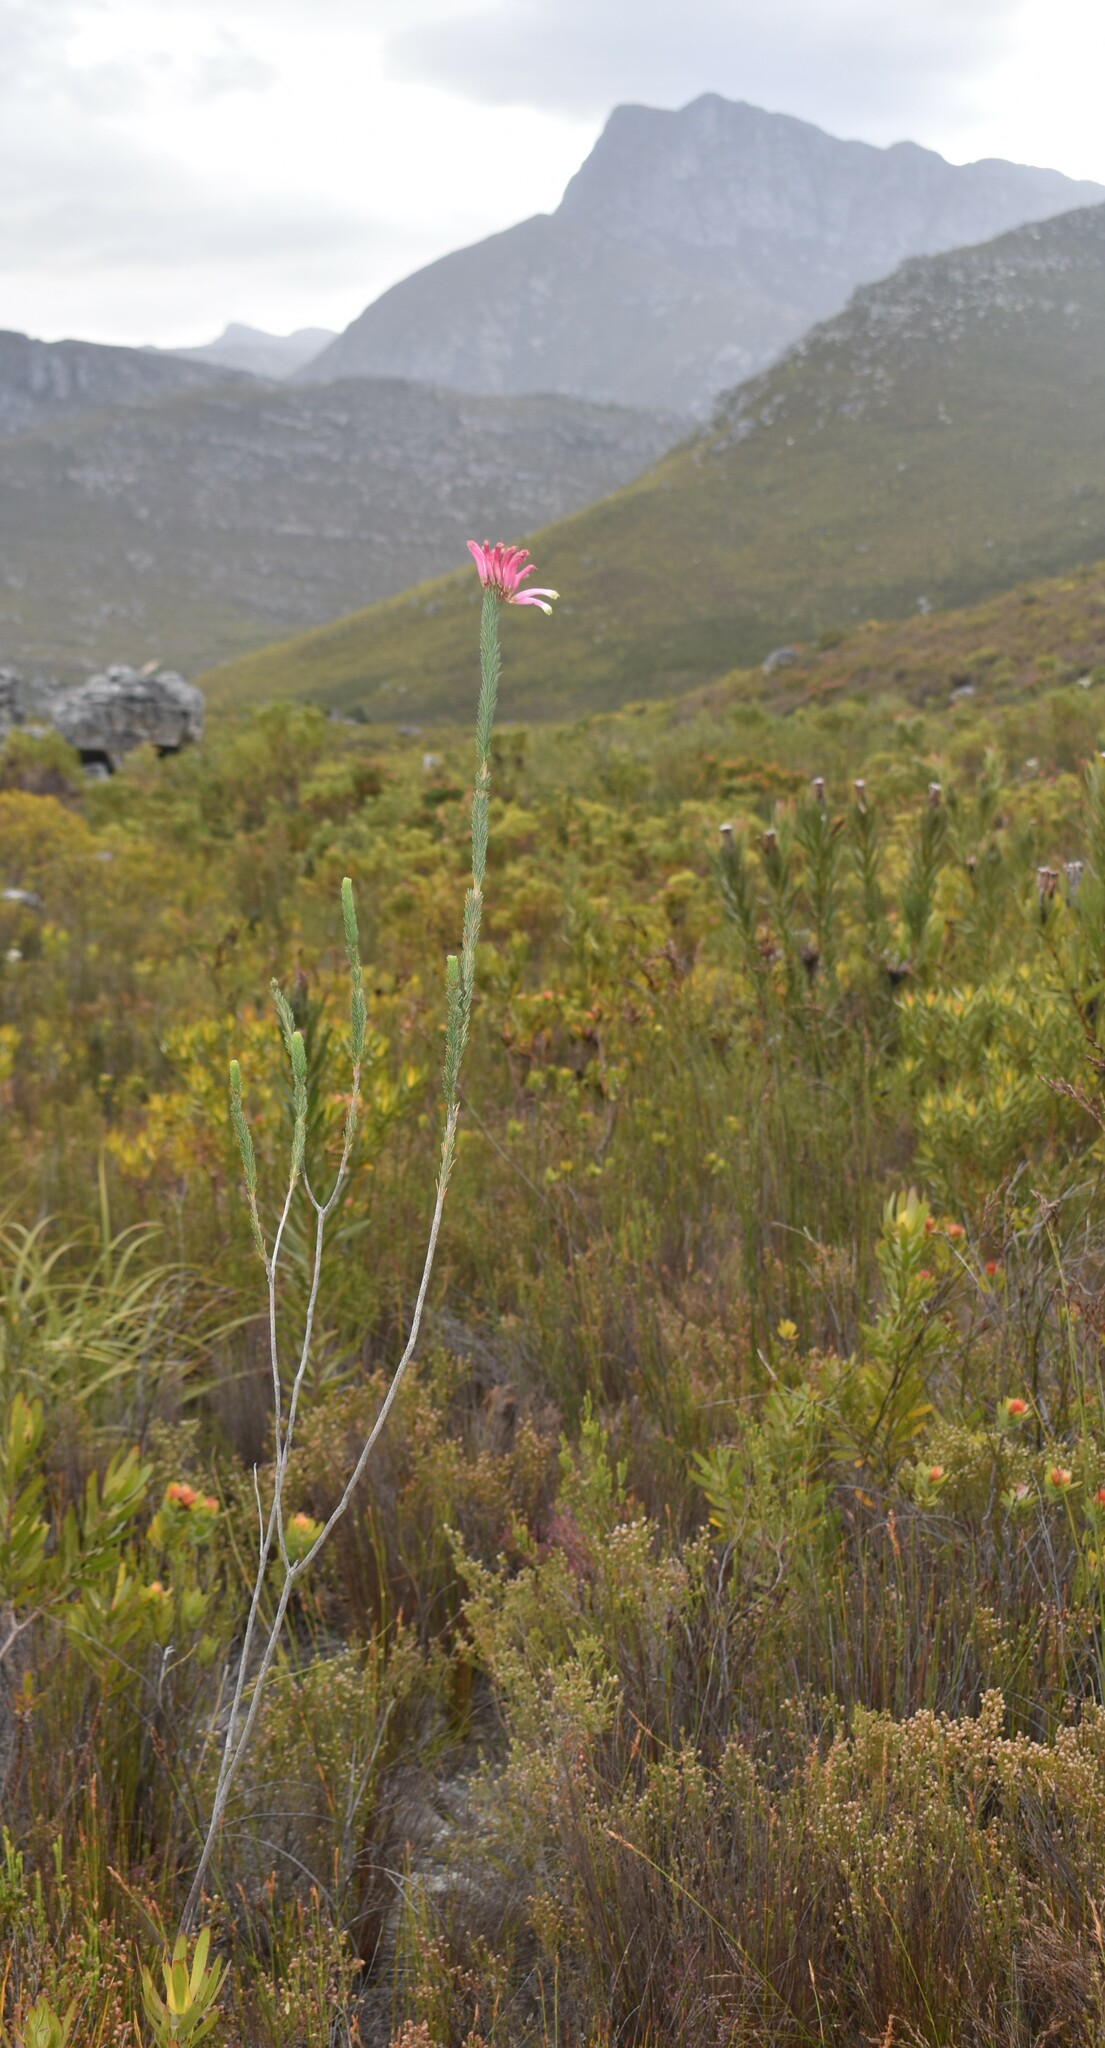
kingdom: Plantae
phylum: Tracheophyta
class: Magnoliopsida
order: Ericales
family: Ericaceae
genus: Erica
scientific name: Erica fascicularis
